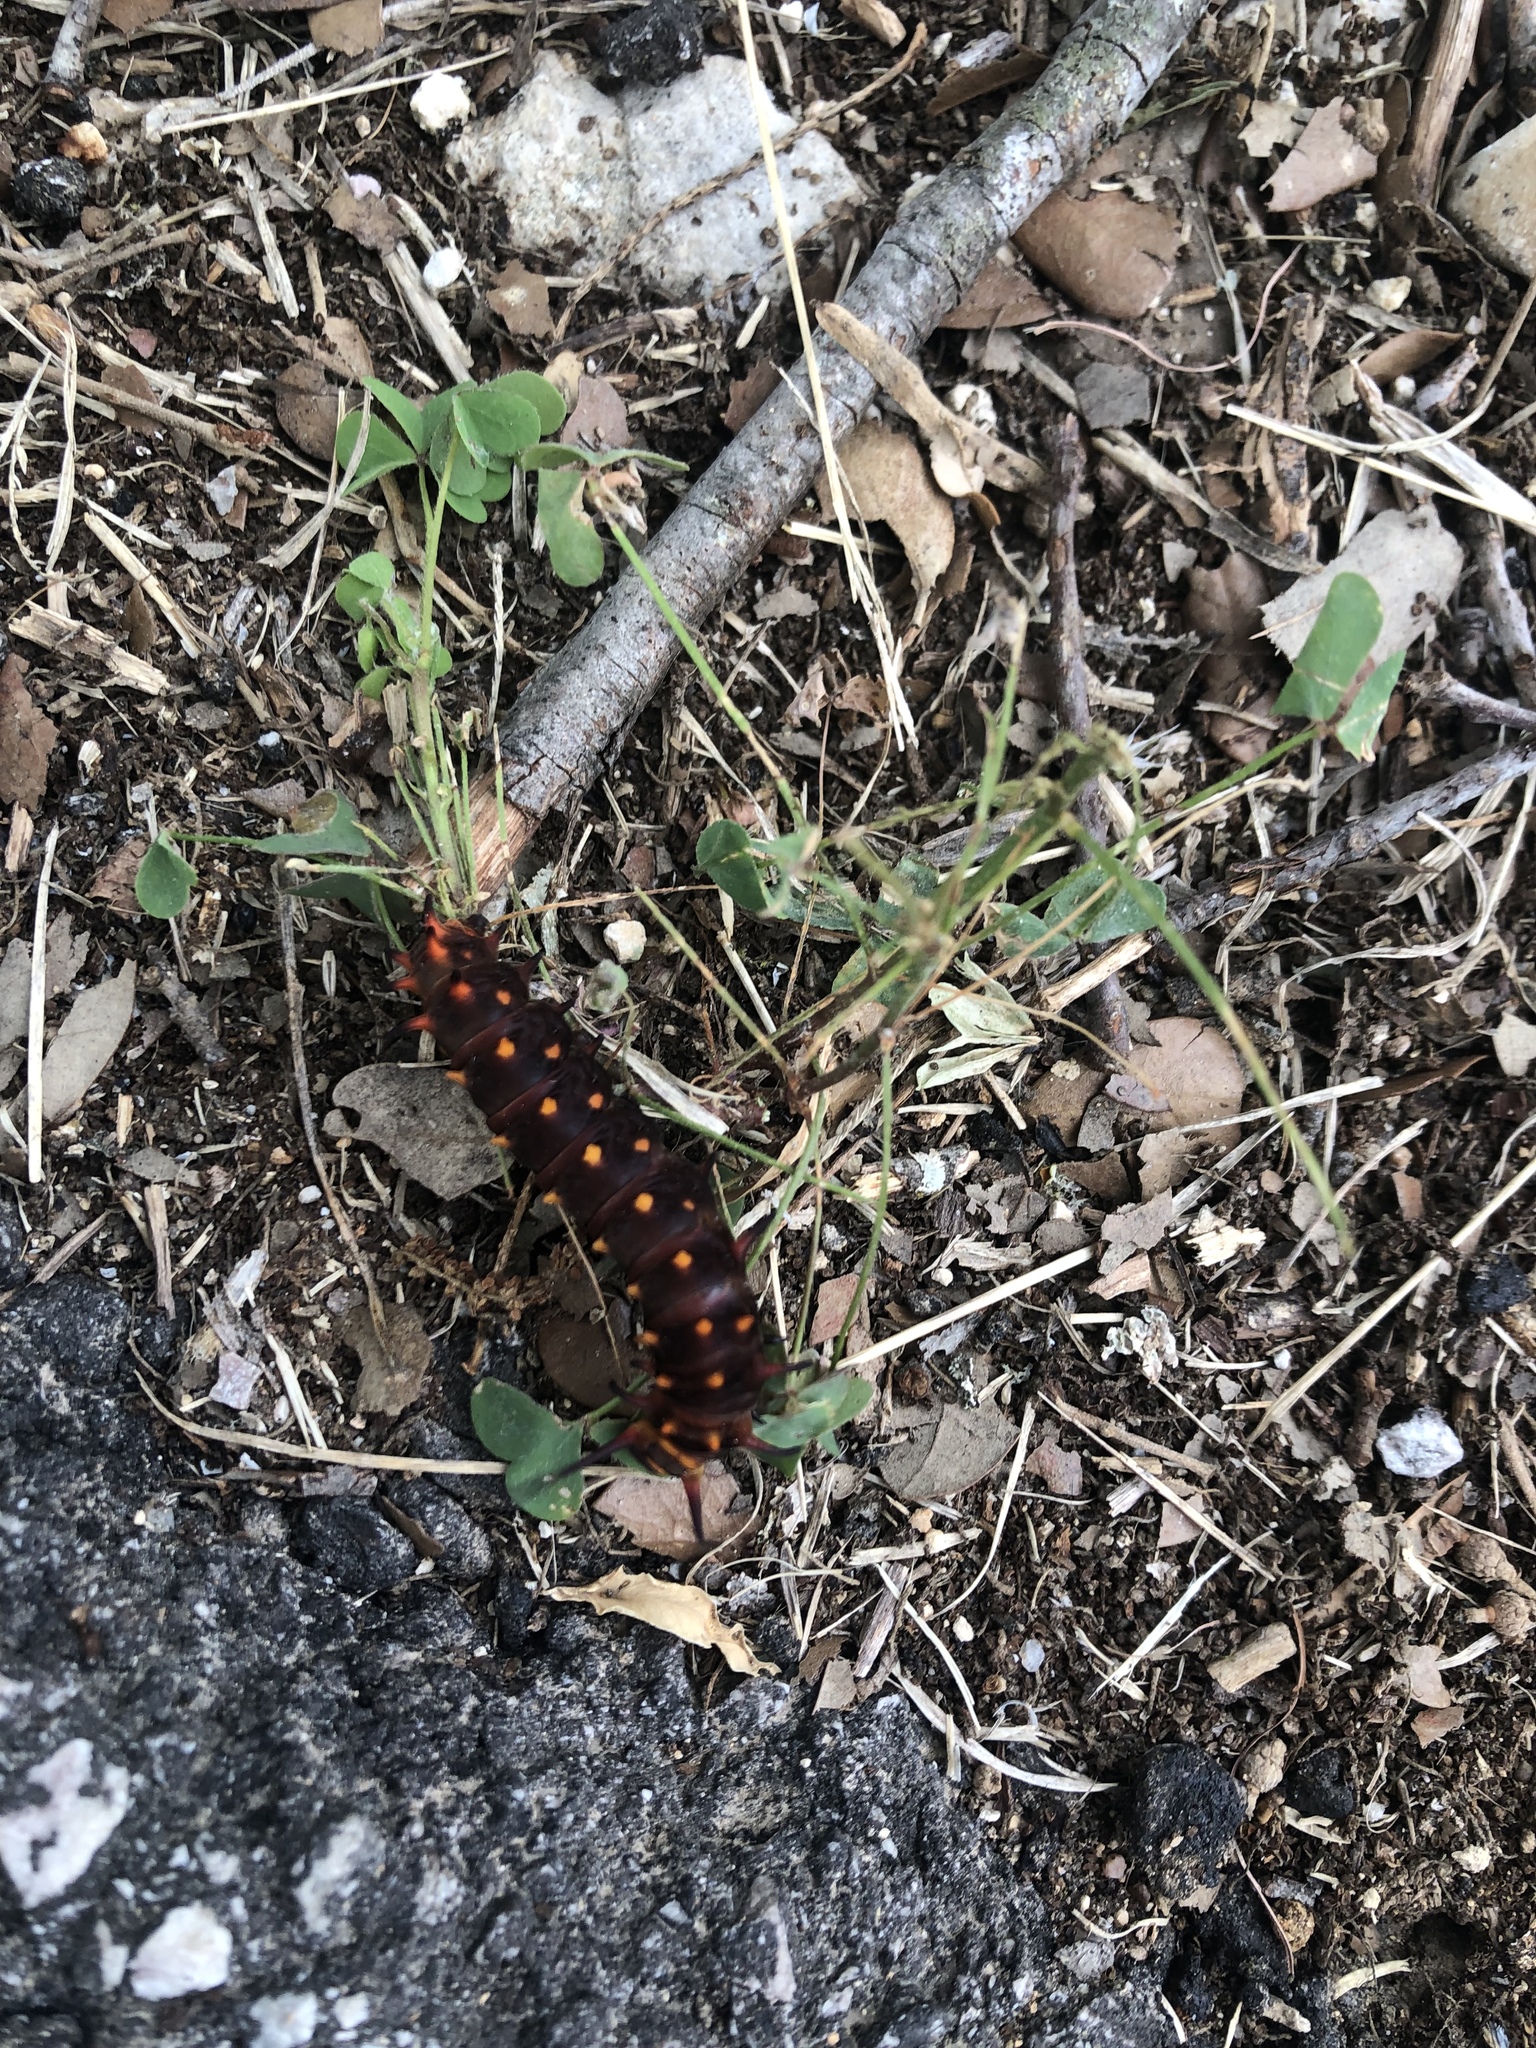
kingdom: Animalia
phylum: Arthropoda
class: Insecta
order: Lepidoptera
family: Papilionidae
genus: Battus
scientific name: Battus philenor
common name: Pipevine swallowtail
